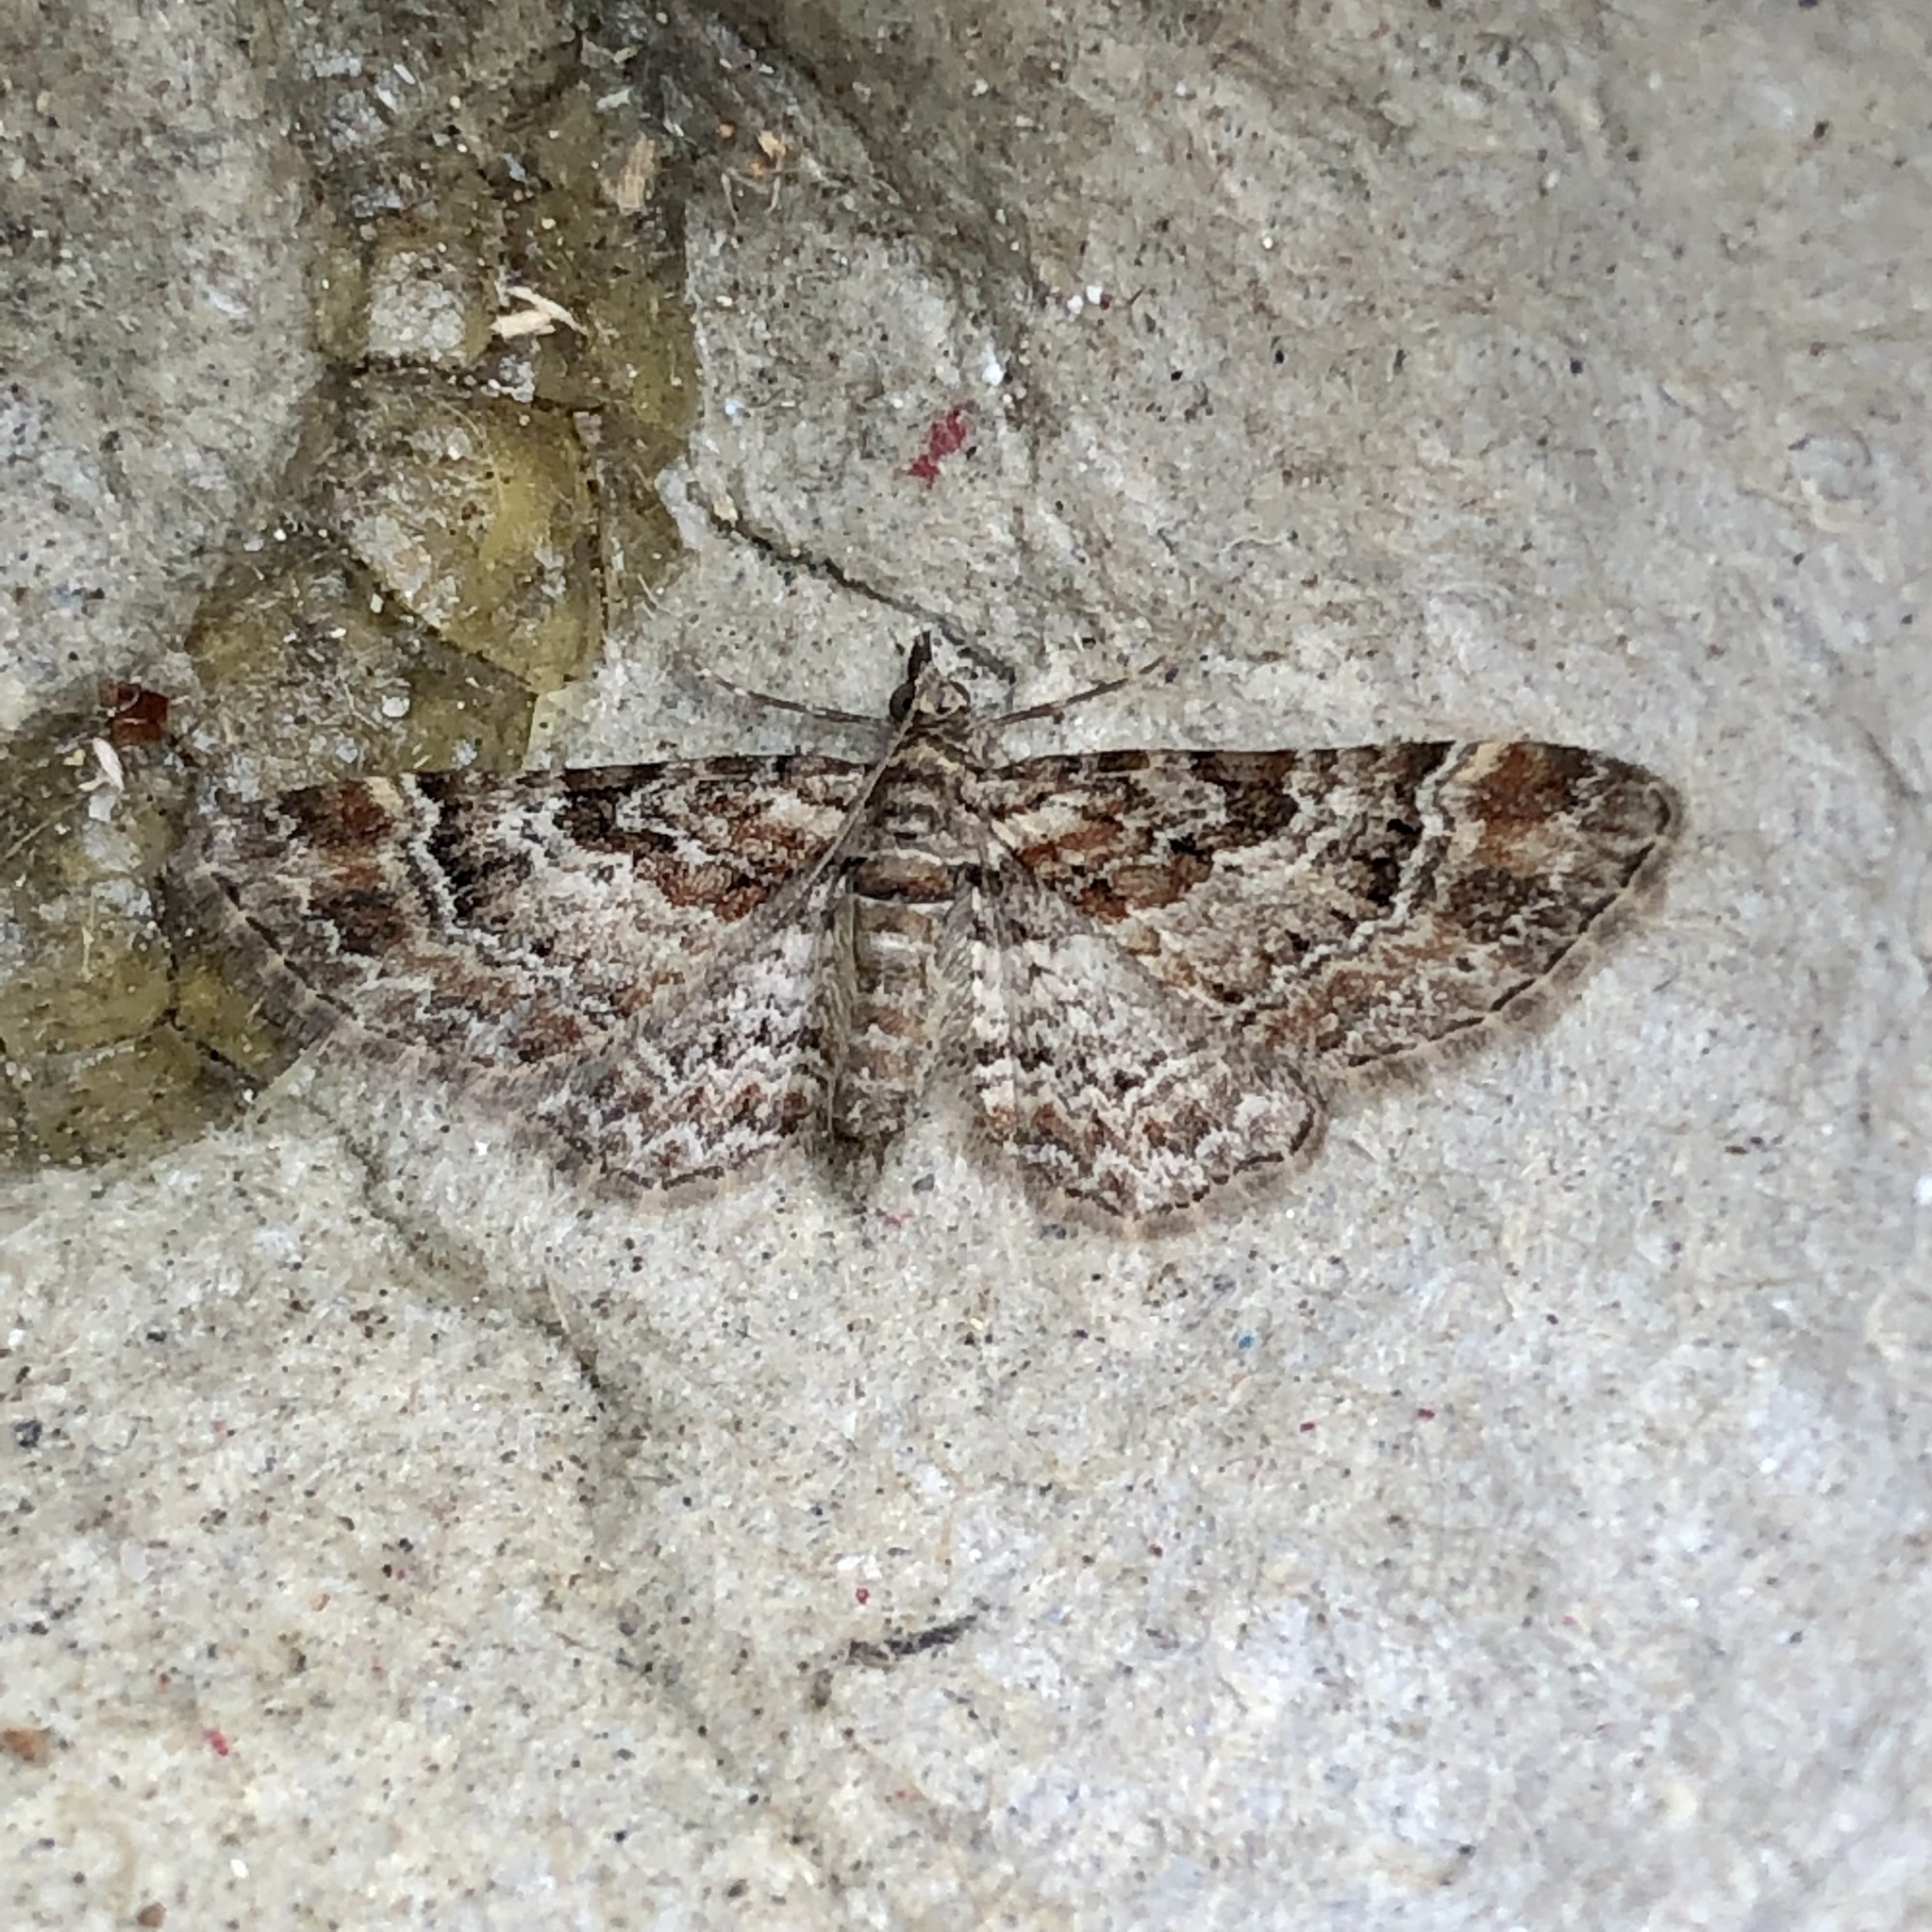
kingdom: Animalia
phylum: Arthropoda
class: Insecta
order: Lepidoptera
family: Geometridae
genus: Gymnoscelis
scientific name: Gymnoscelis rufifasciata
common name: Double-striped pug
